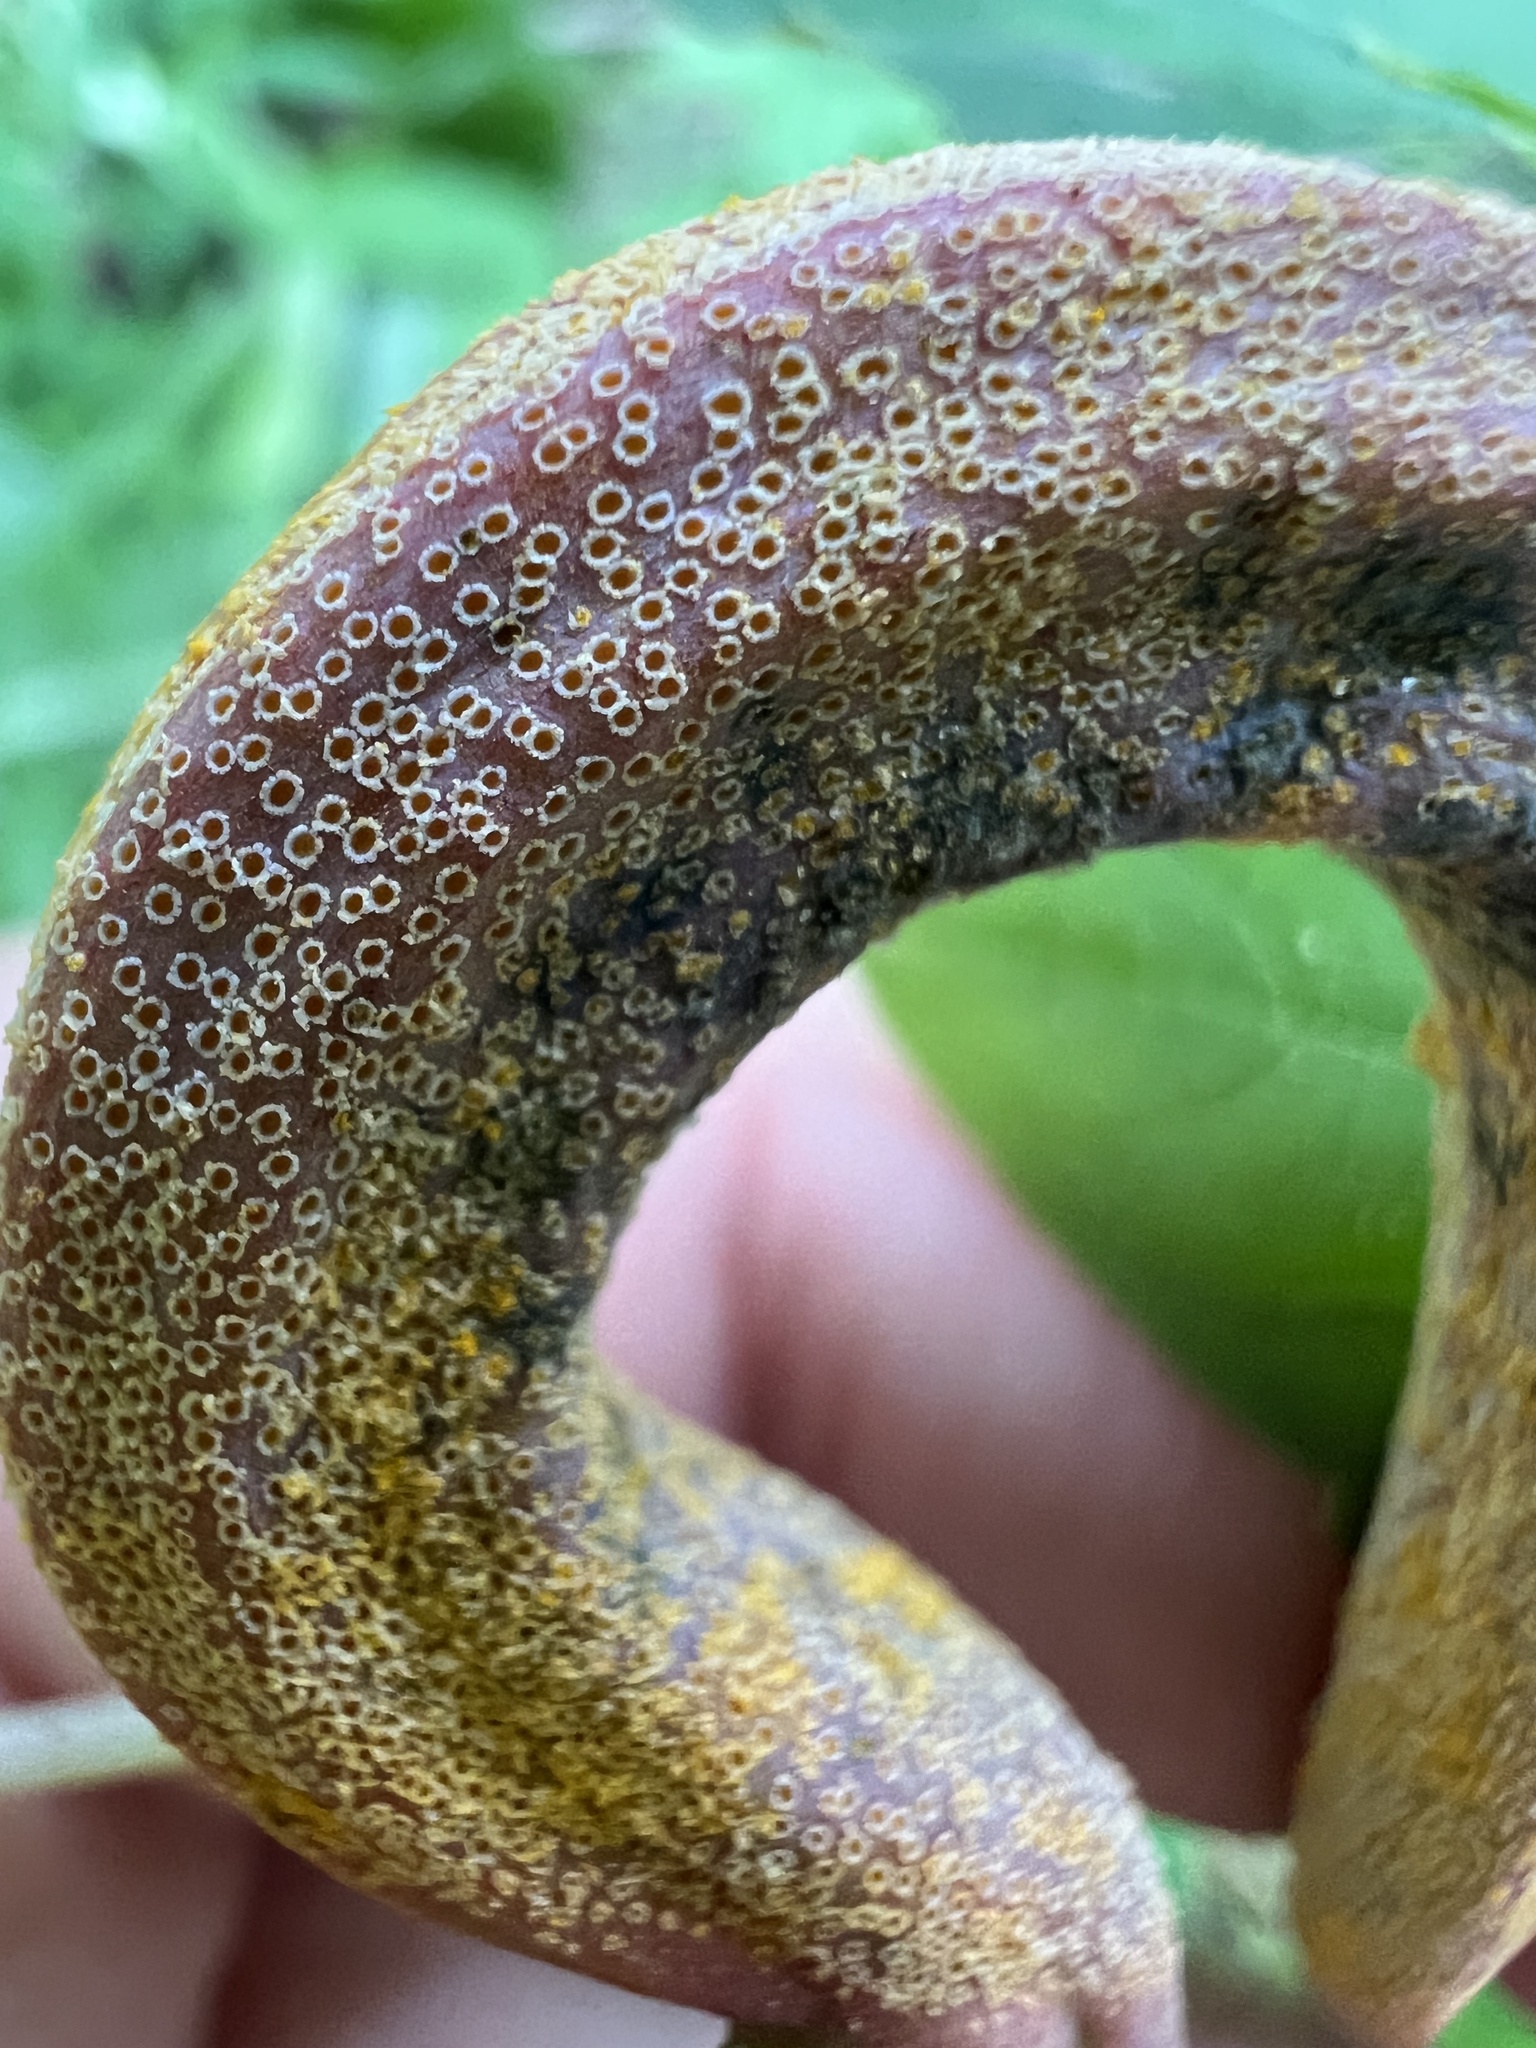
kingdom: Fungi
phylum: Basidiomycota
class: Pucciniomycetes
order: Pucciniales
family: Pucciniaceae
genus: Puccinia
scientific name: Puccinia recondita
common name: Brown rust of wheat
